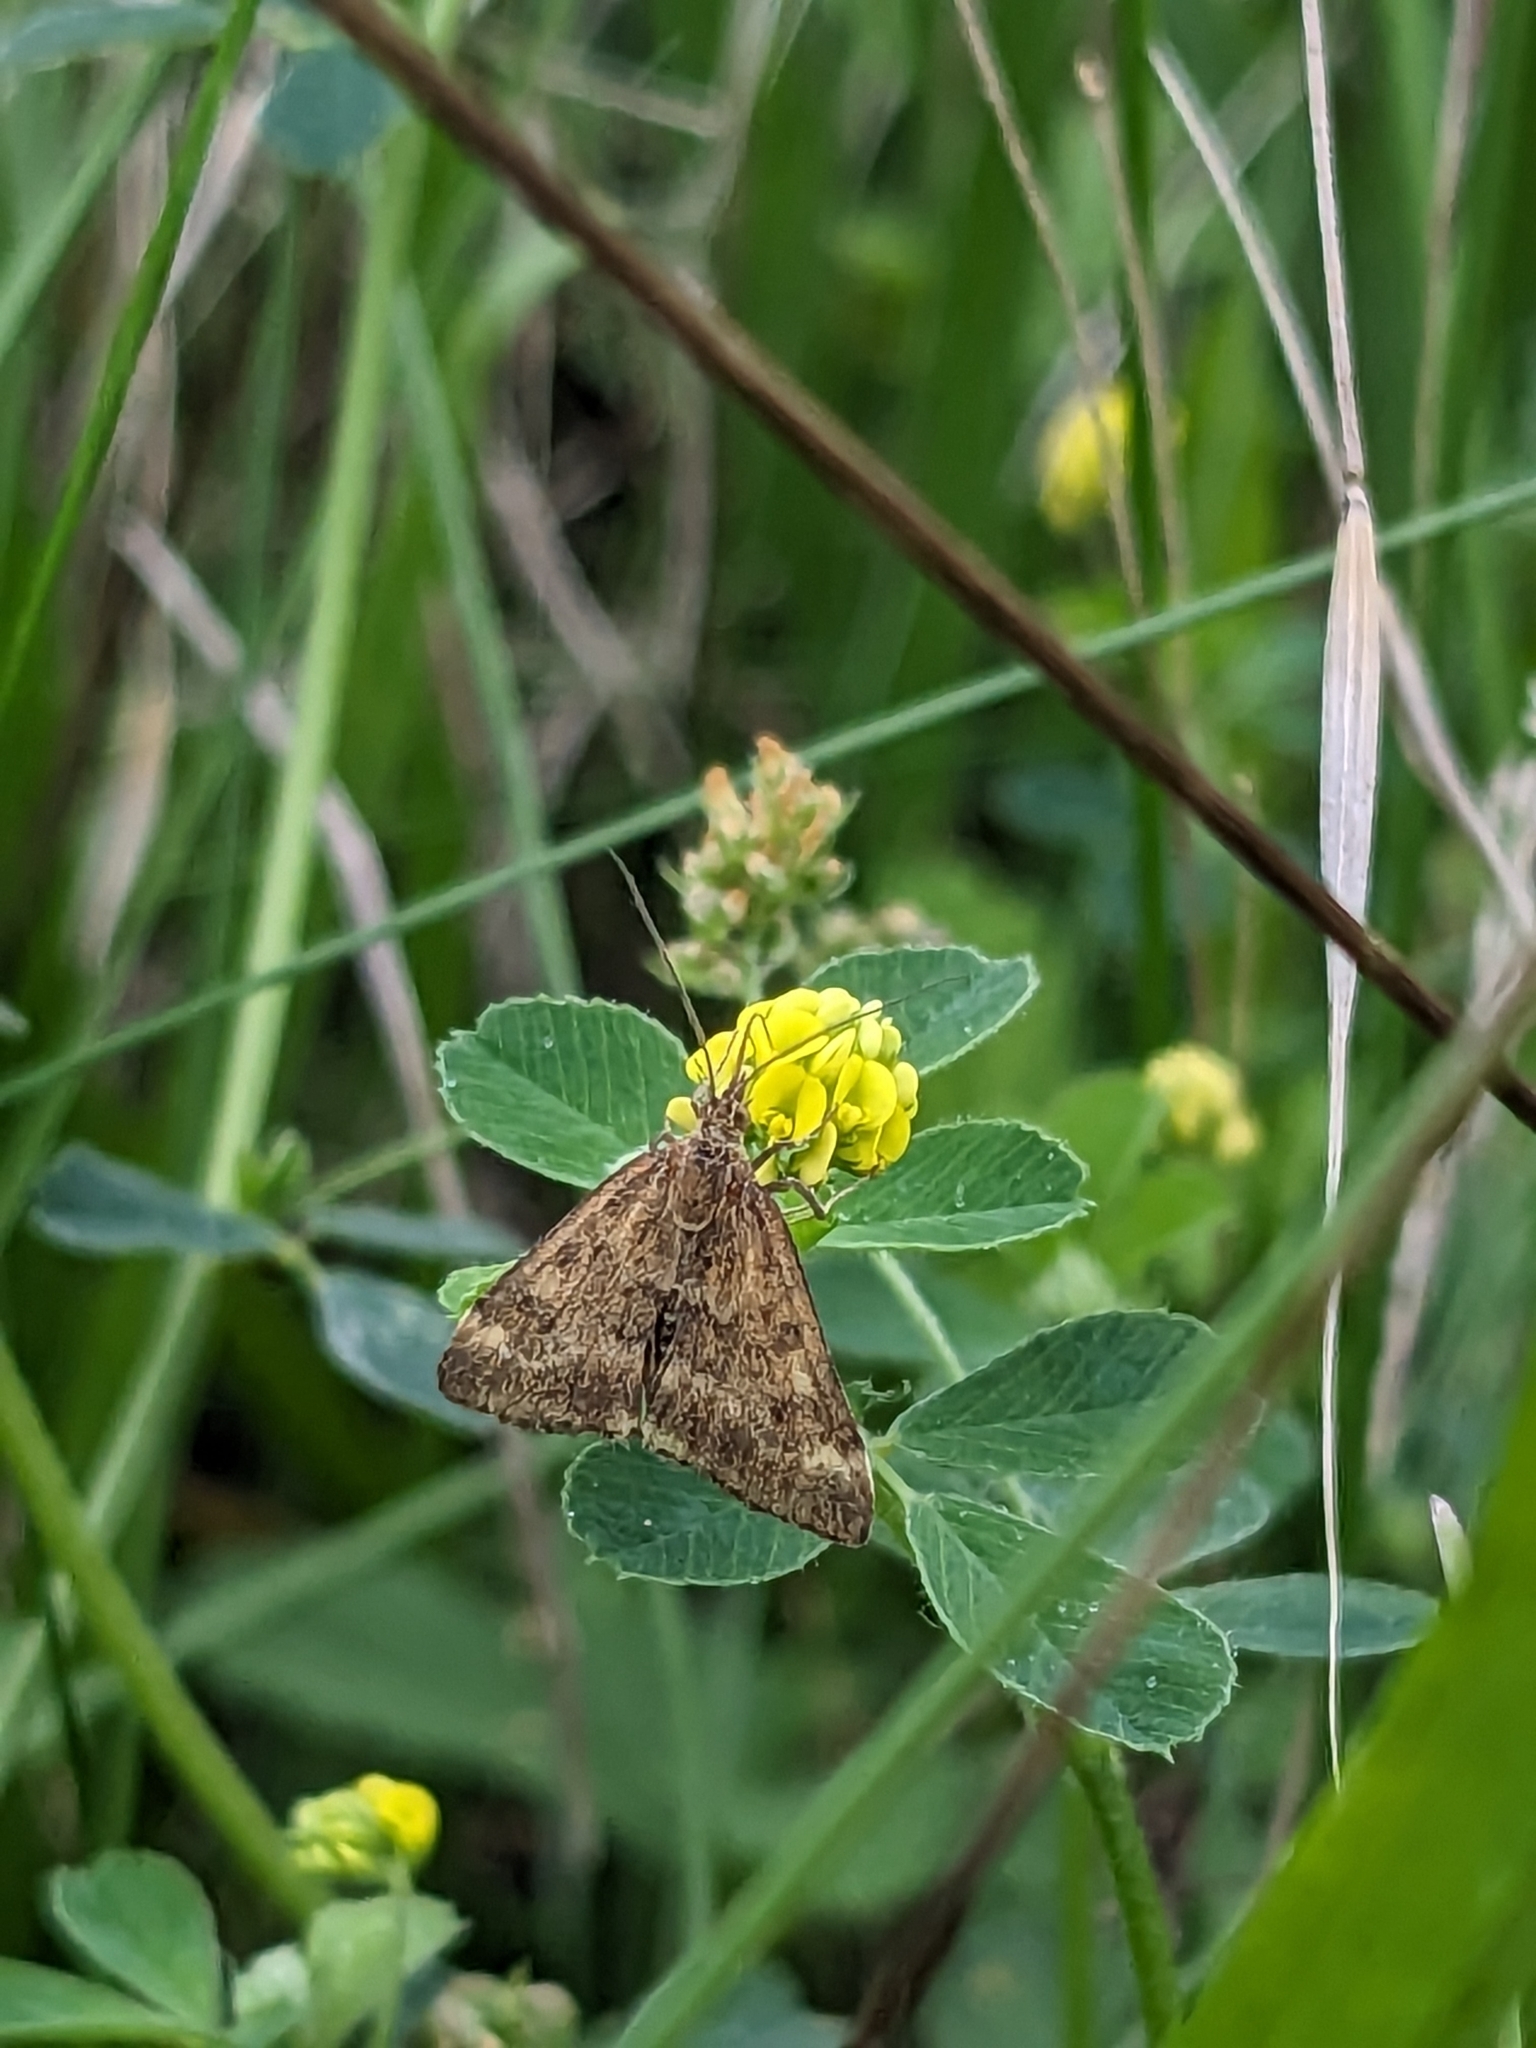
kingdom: Animalia
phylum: Arthropoda
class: Insecta
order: Lepidoptera
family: Crambidae
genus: Pyrausta
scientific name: Pyrausta despicata
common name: Straw-barred pearl
